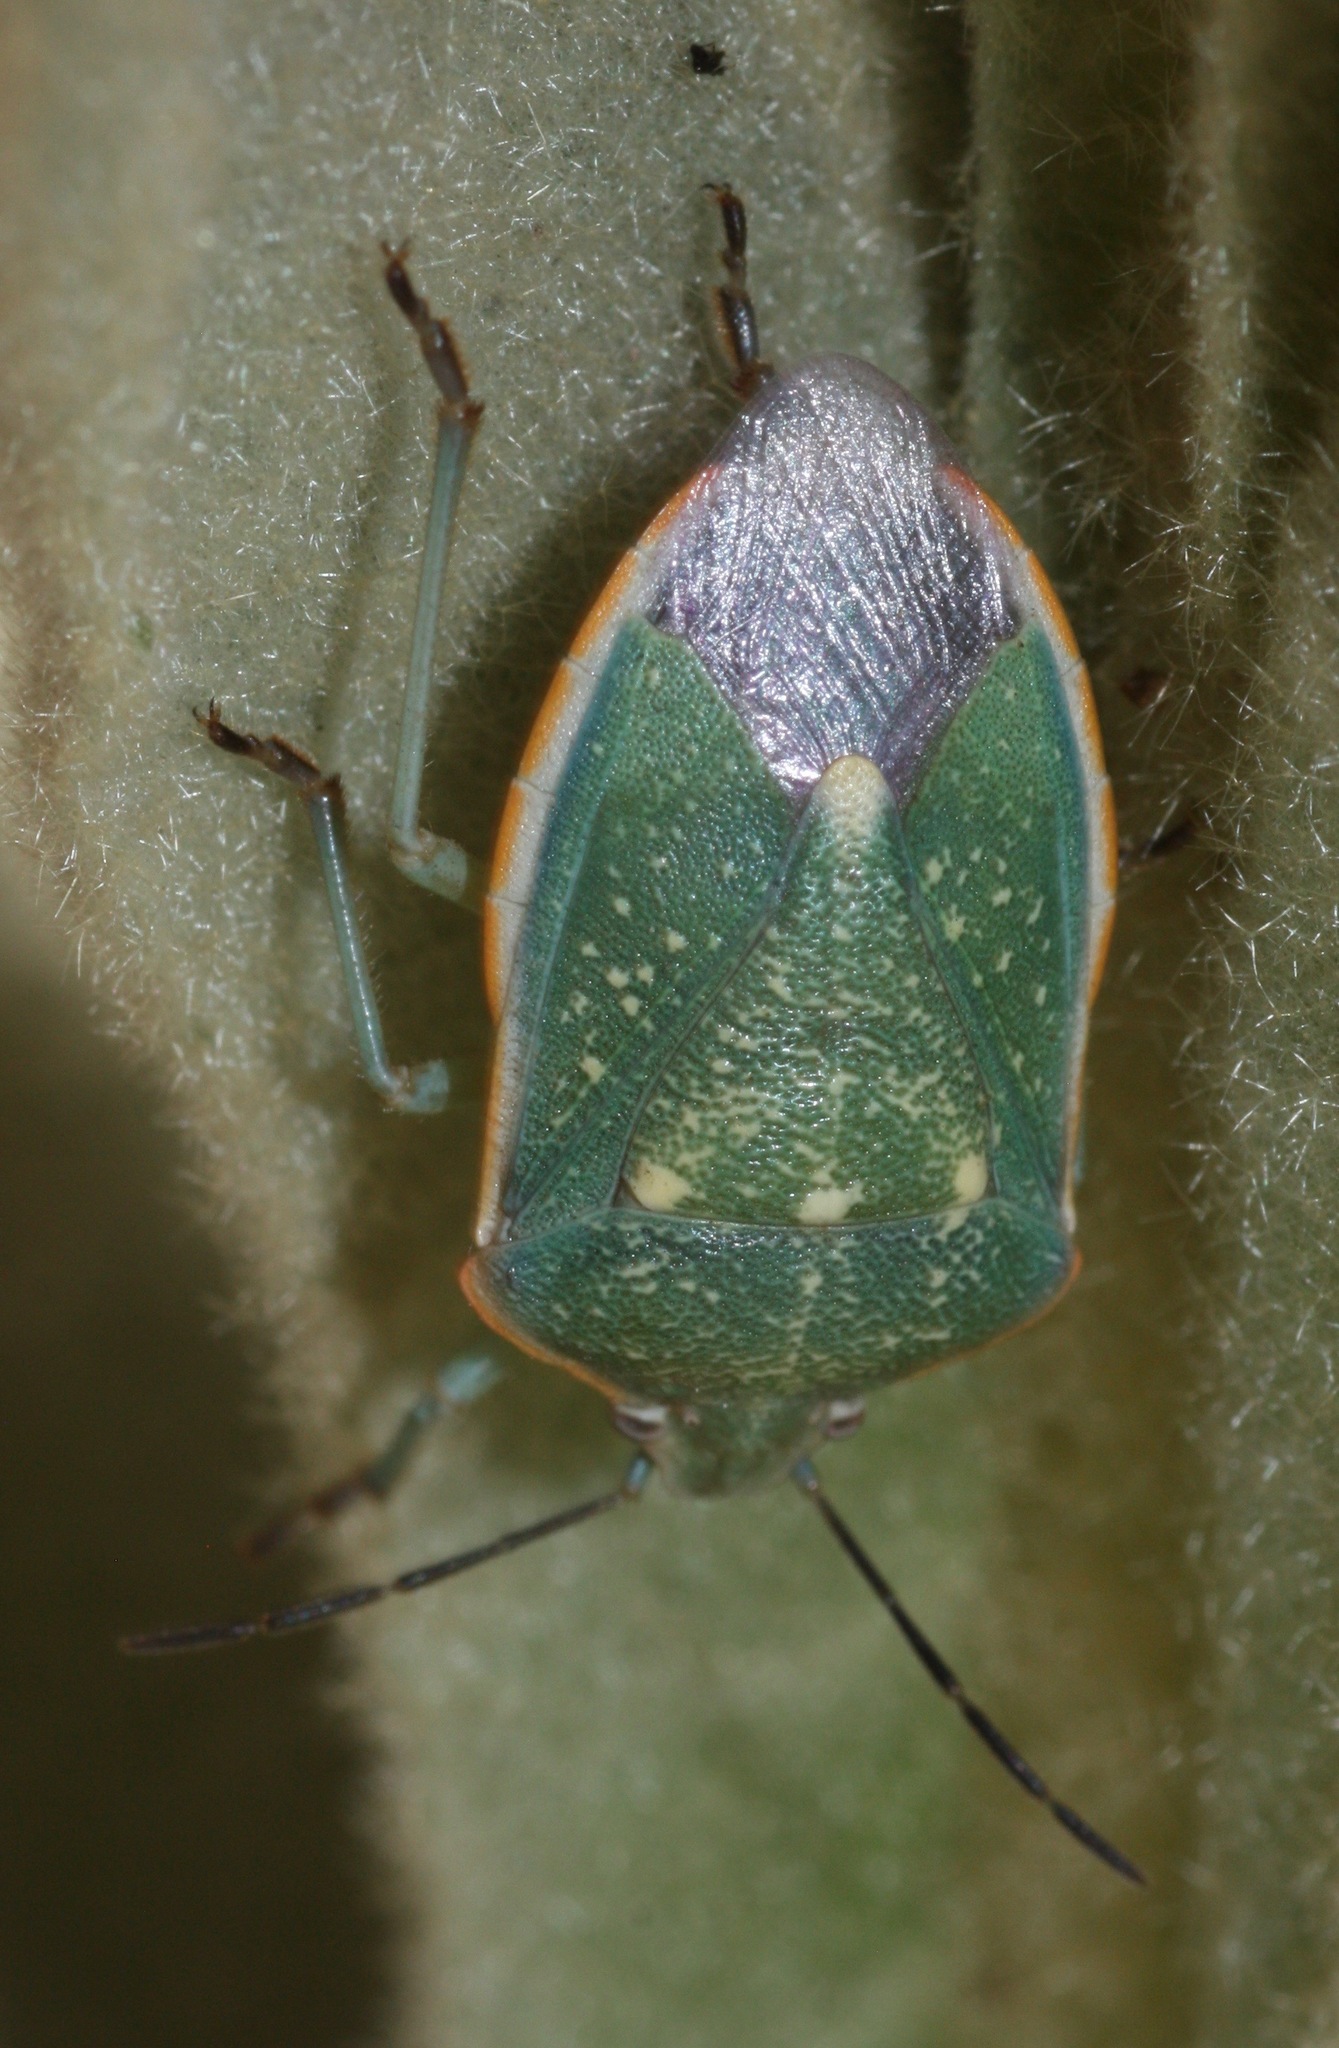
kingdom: Animalia
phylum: Arthropoda
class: Insecta
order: Hemiptera
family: Pentatomidae
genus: Chlorochroa
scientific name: Chlorochroa sayi
